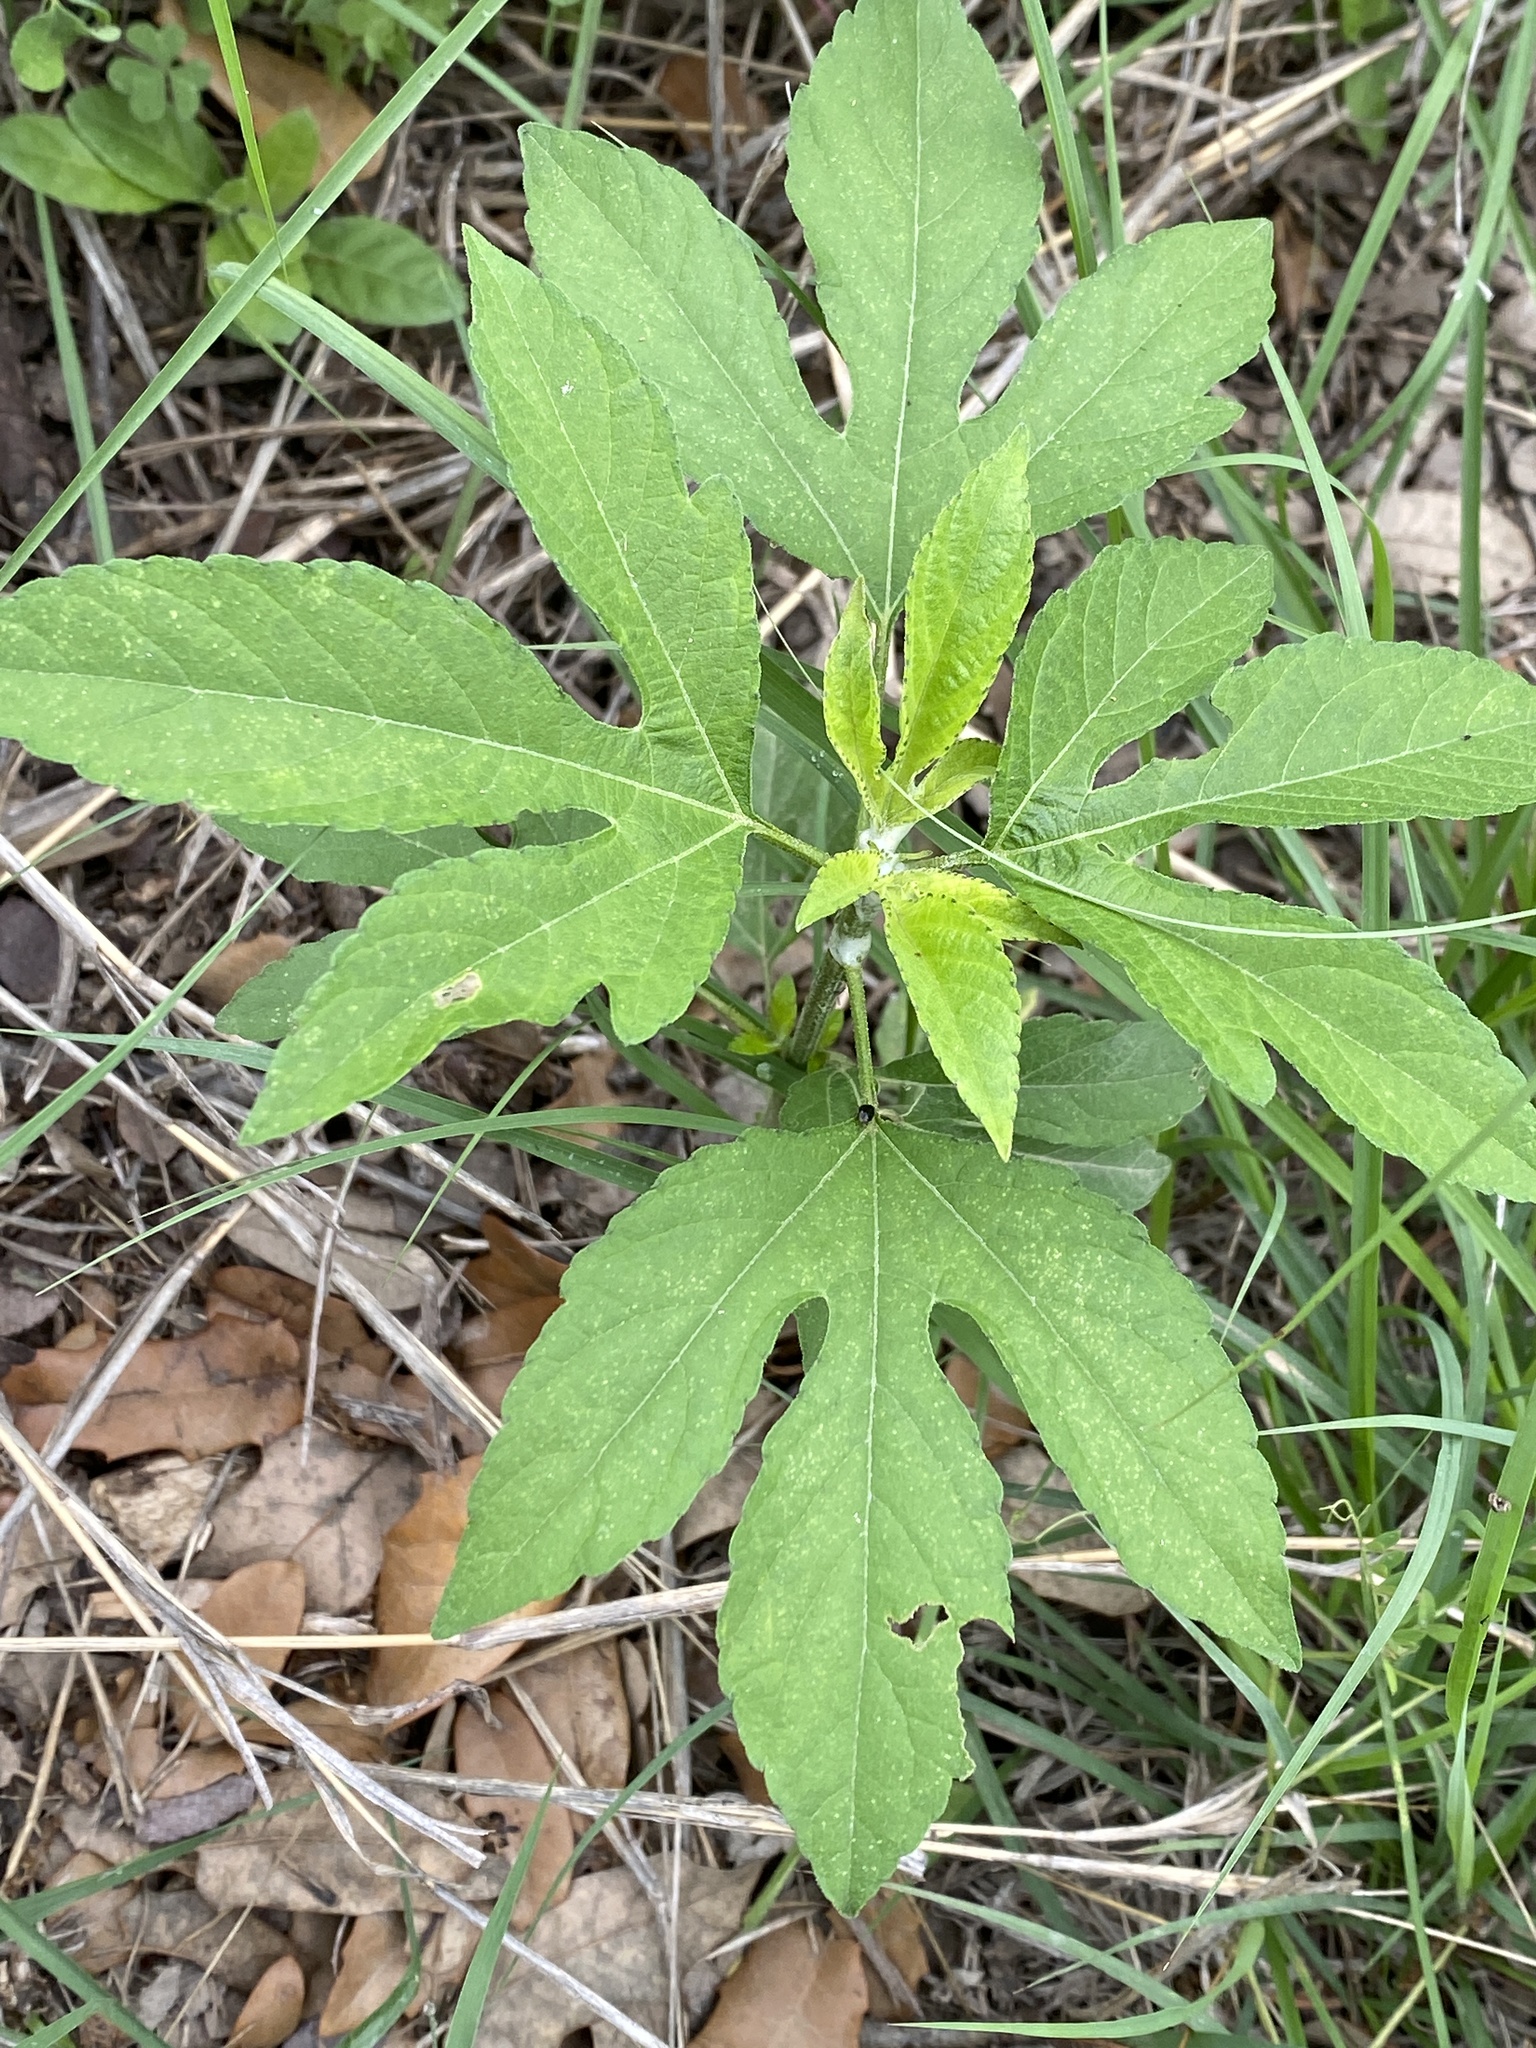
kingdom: Plantae
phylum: Tracheophyta
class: Magnoliopsida
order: Asterales
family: Asteraceae
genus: Ambrosia
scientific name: Ambrosia trifida
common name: Giant ragweed
